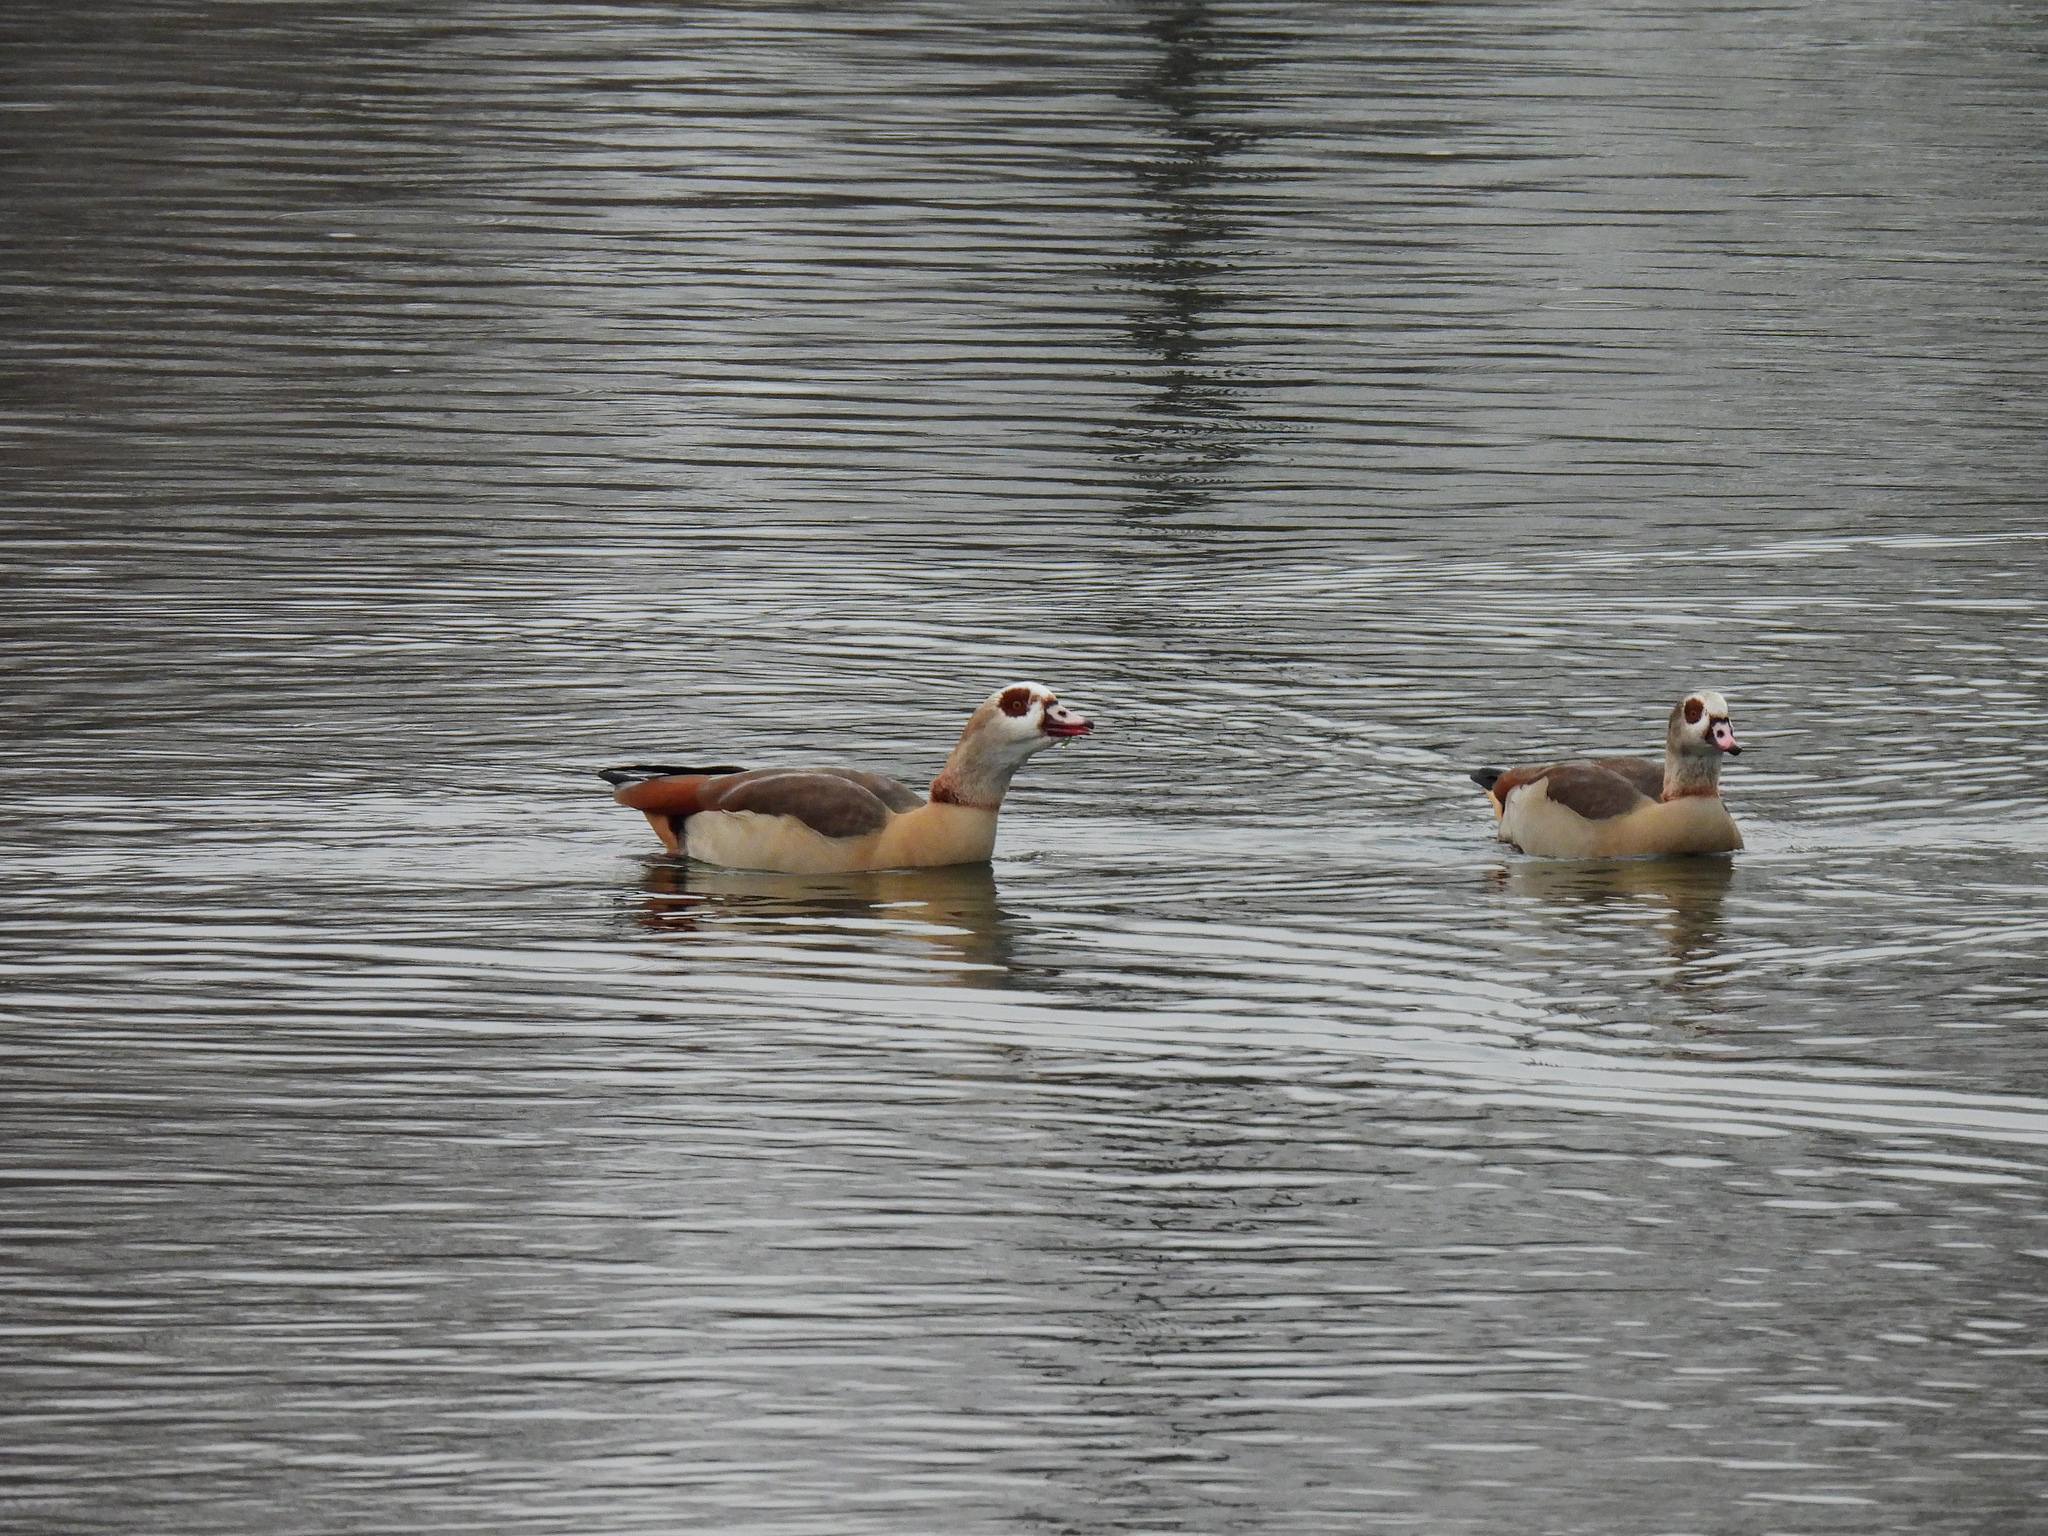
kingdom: Animalia
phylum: Chordata
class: Aves
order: Anseriformes
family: Anatidae
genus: Alopochen
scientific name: Alopochen aegyptiaca
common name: Egyptian goose
